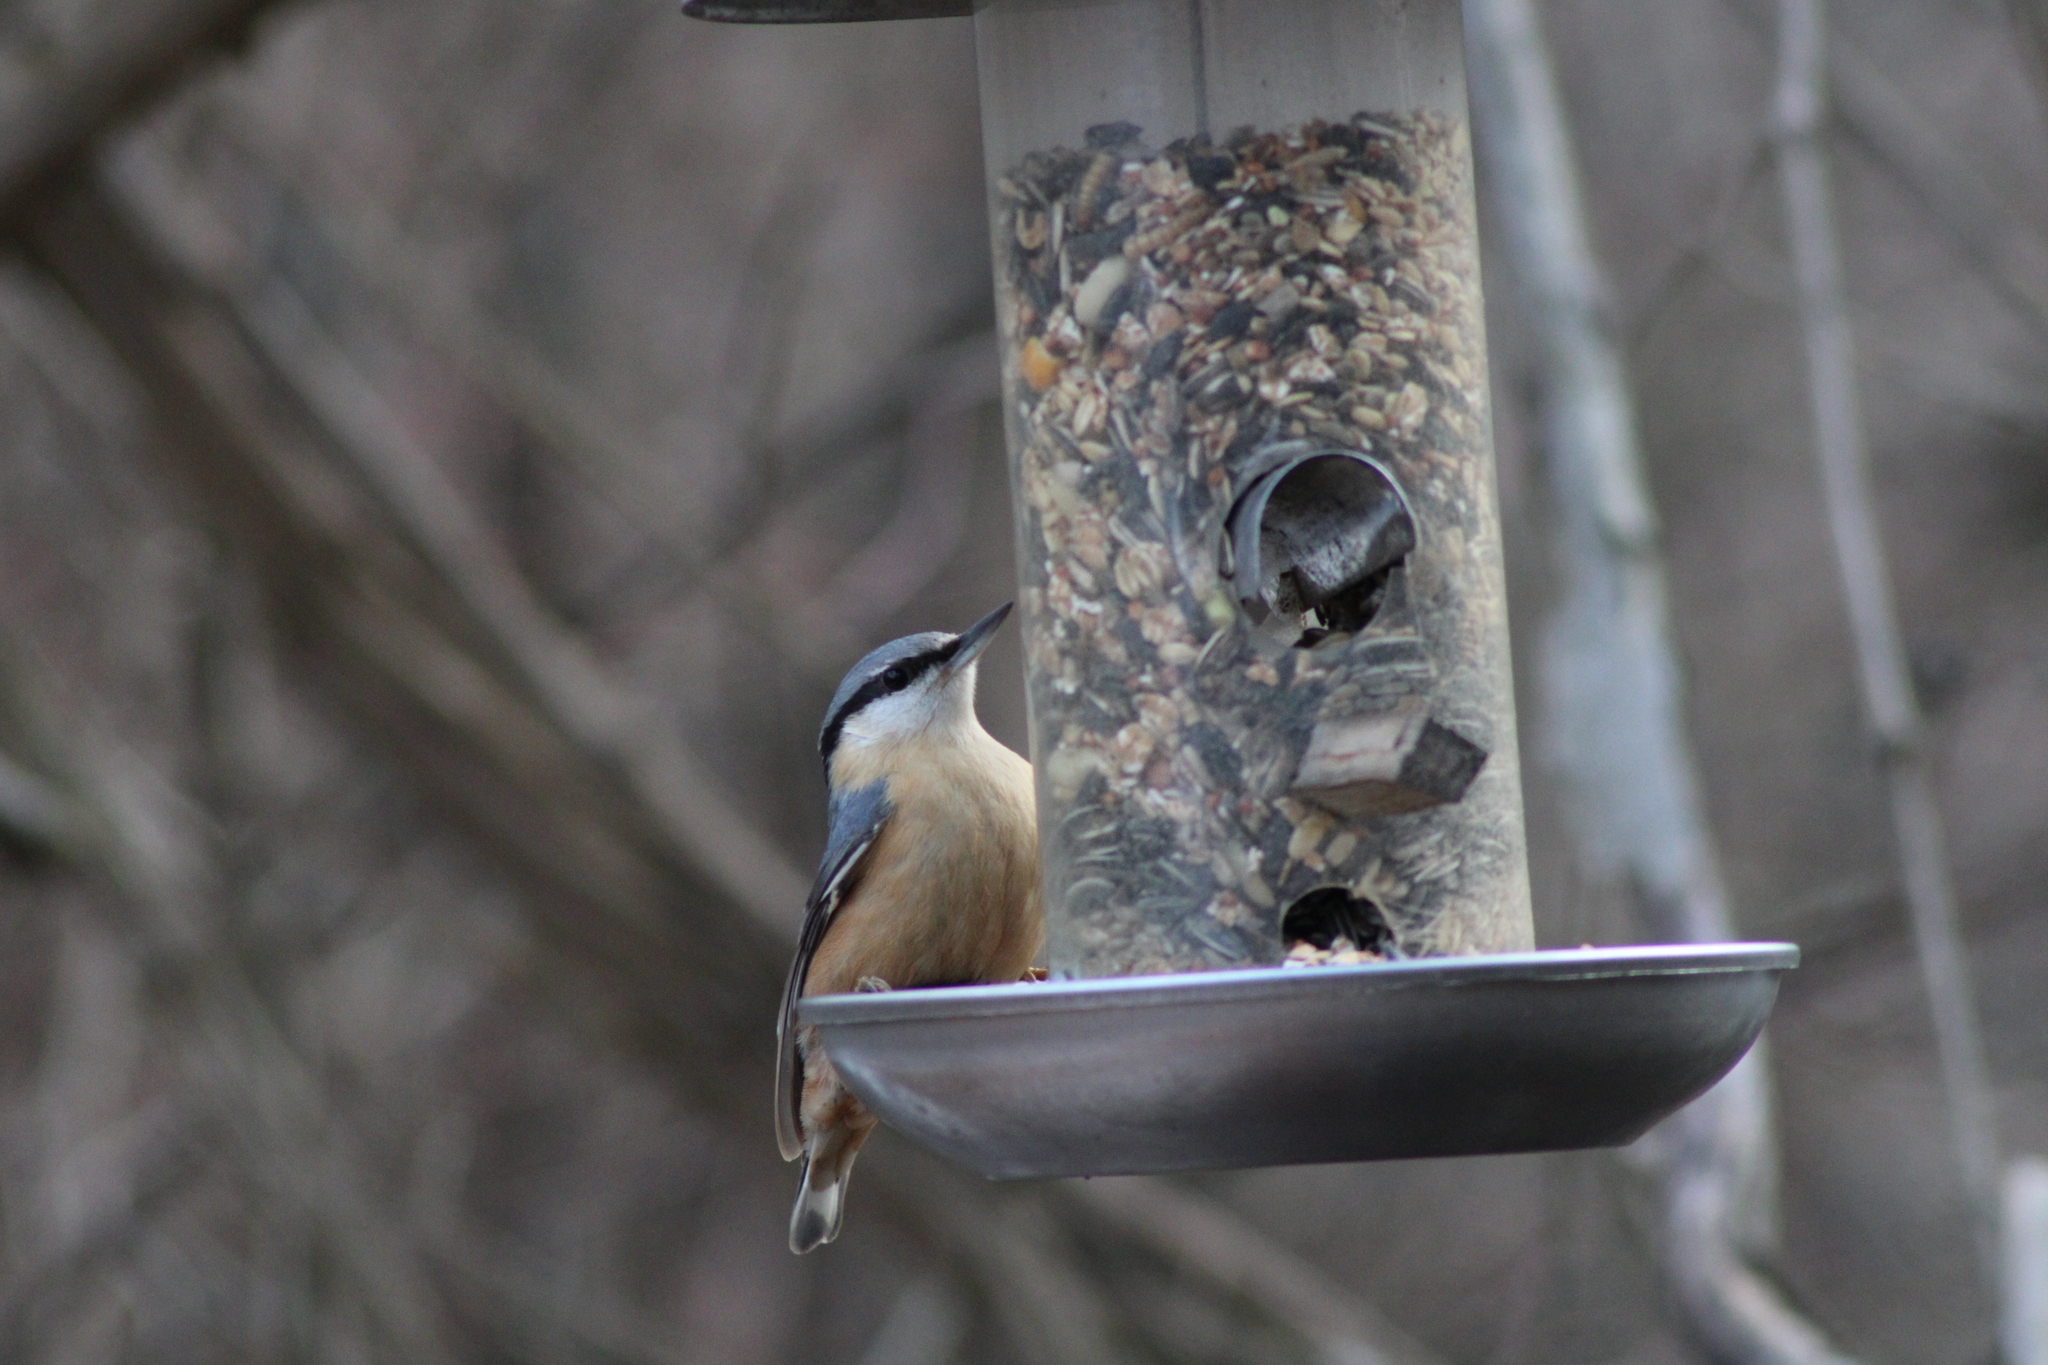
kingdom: Animalia
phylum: Chordata
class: Aves
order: Passeriformes
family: Sittidae
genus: Sitta
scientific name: Sitta europaea
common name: Eurasian nuthatch
